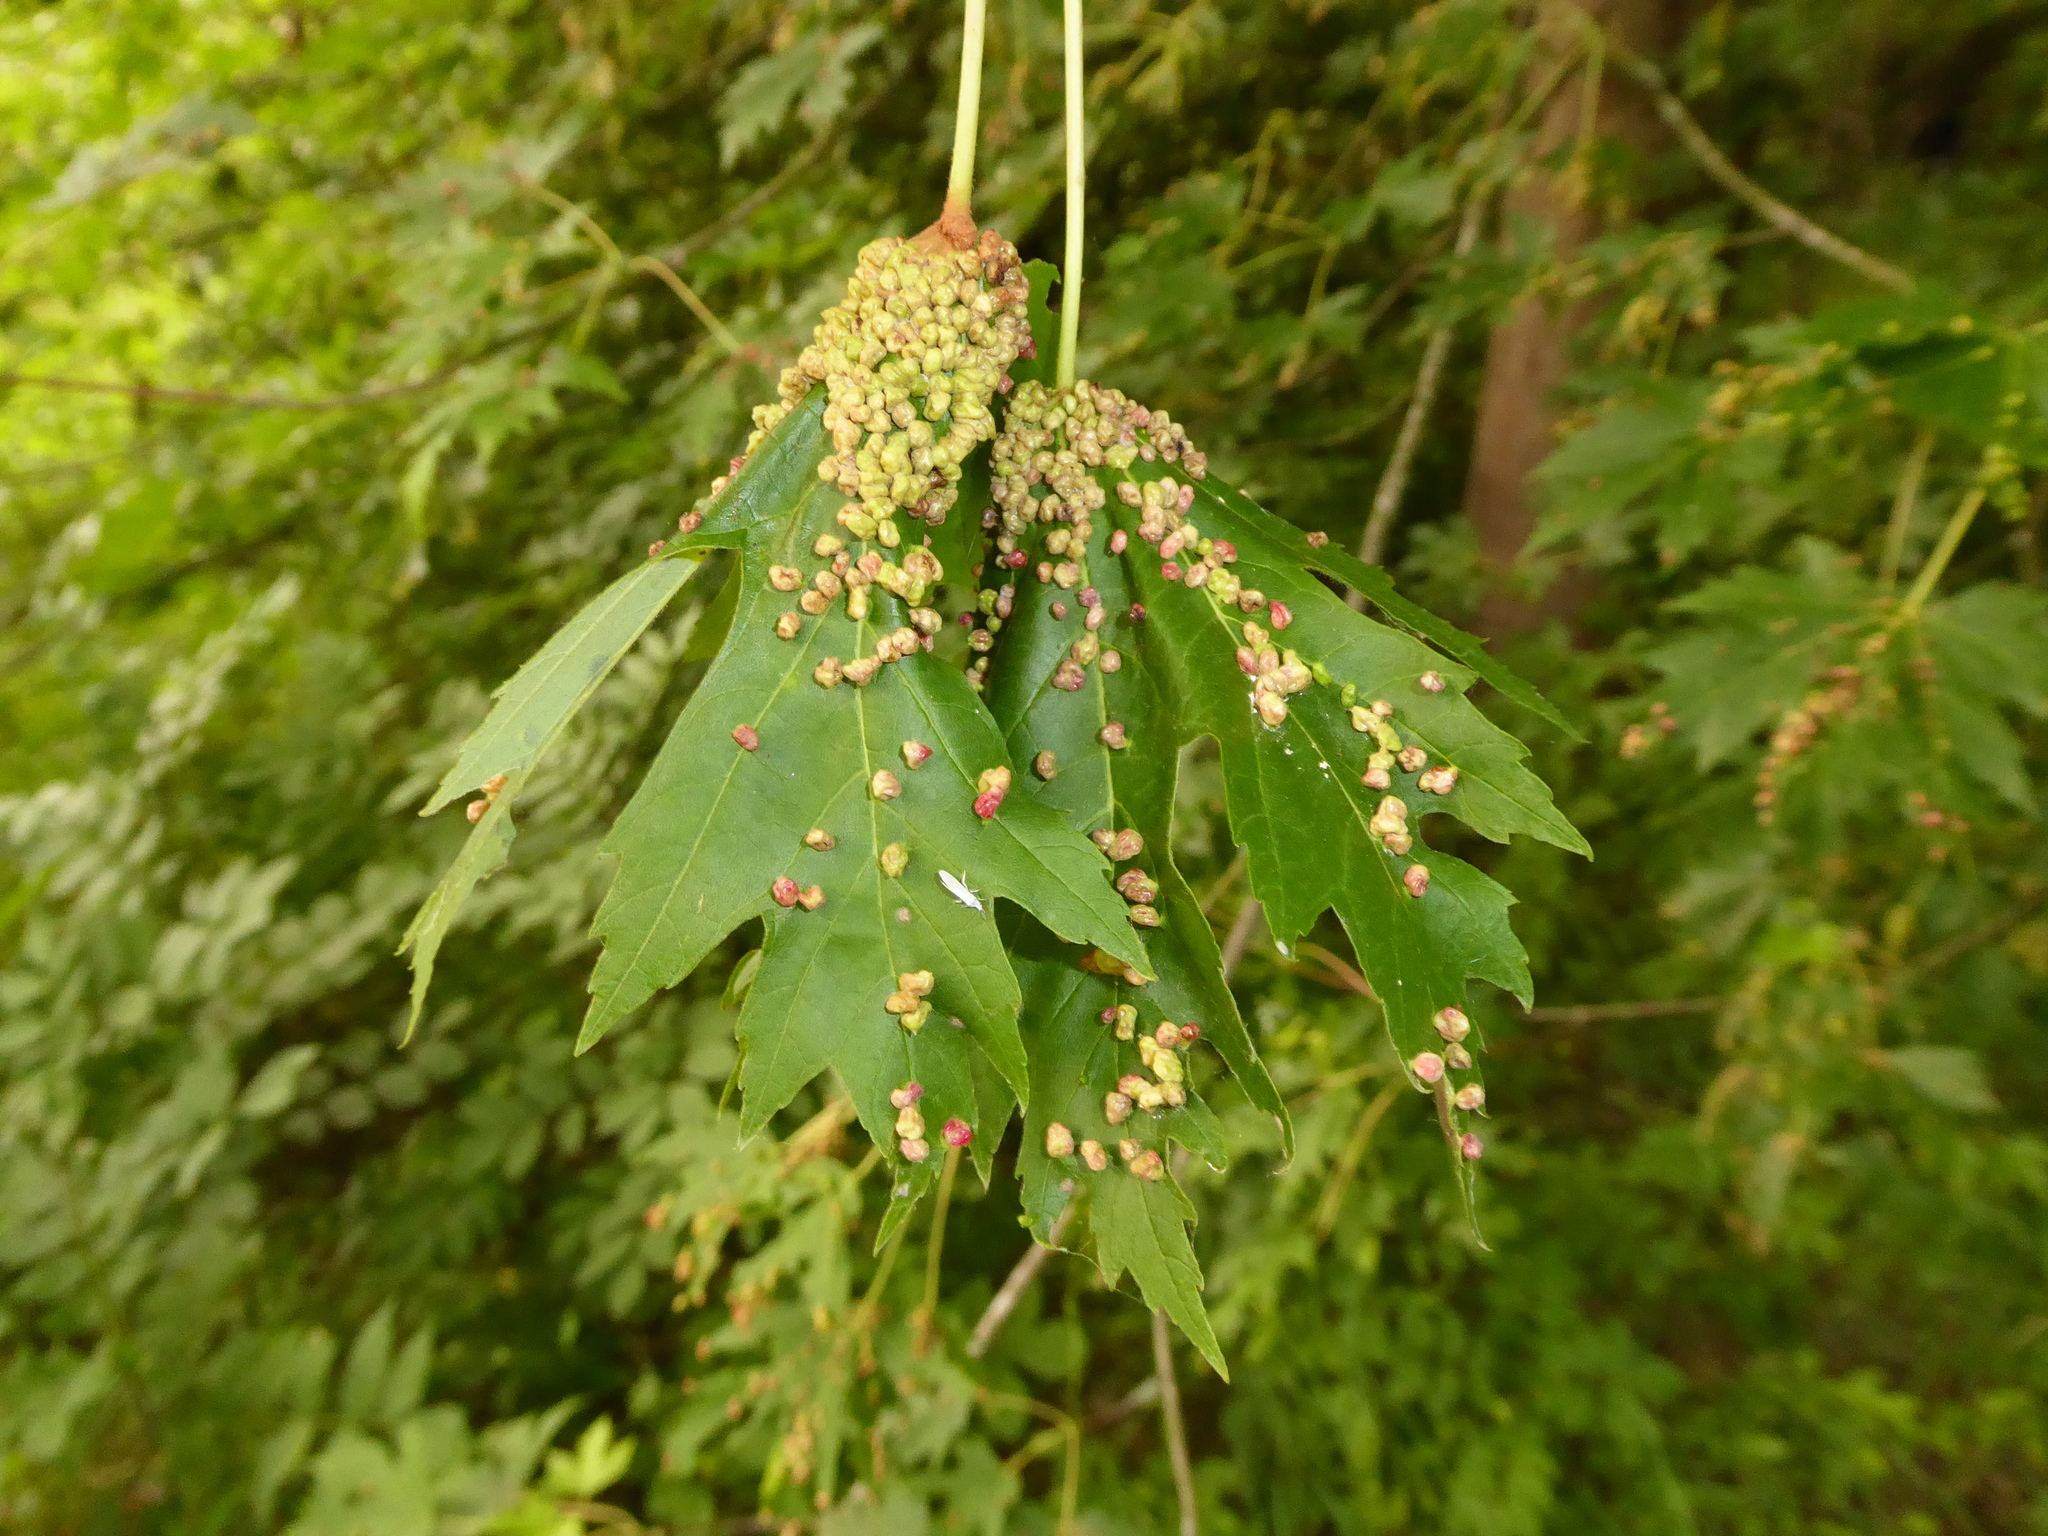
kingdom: Animalia
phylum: Arthropoda
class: Arachnida
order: Trombidiformes
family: Eriophyidae
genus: Vasates
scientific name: Vasates quadripedes
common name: Maple bladder gall mite
